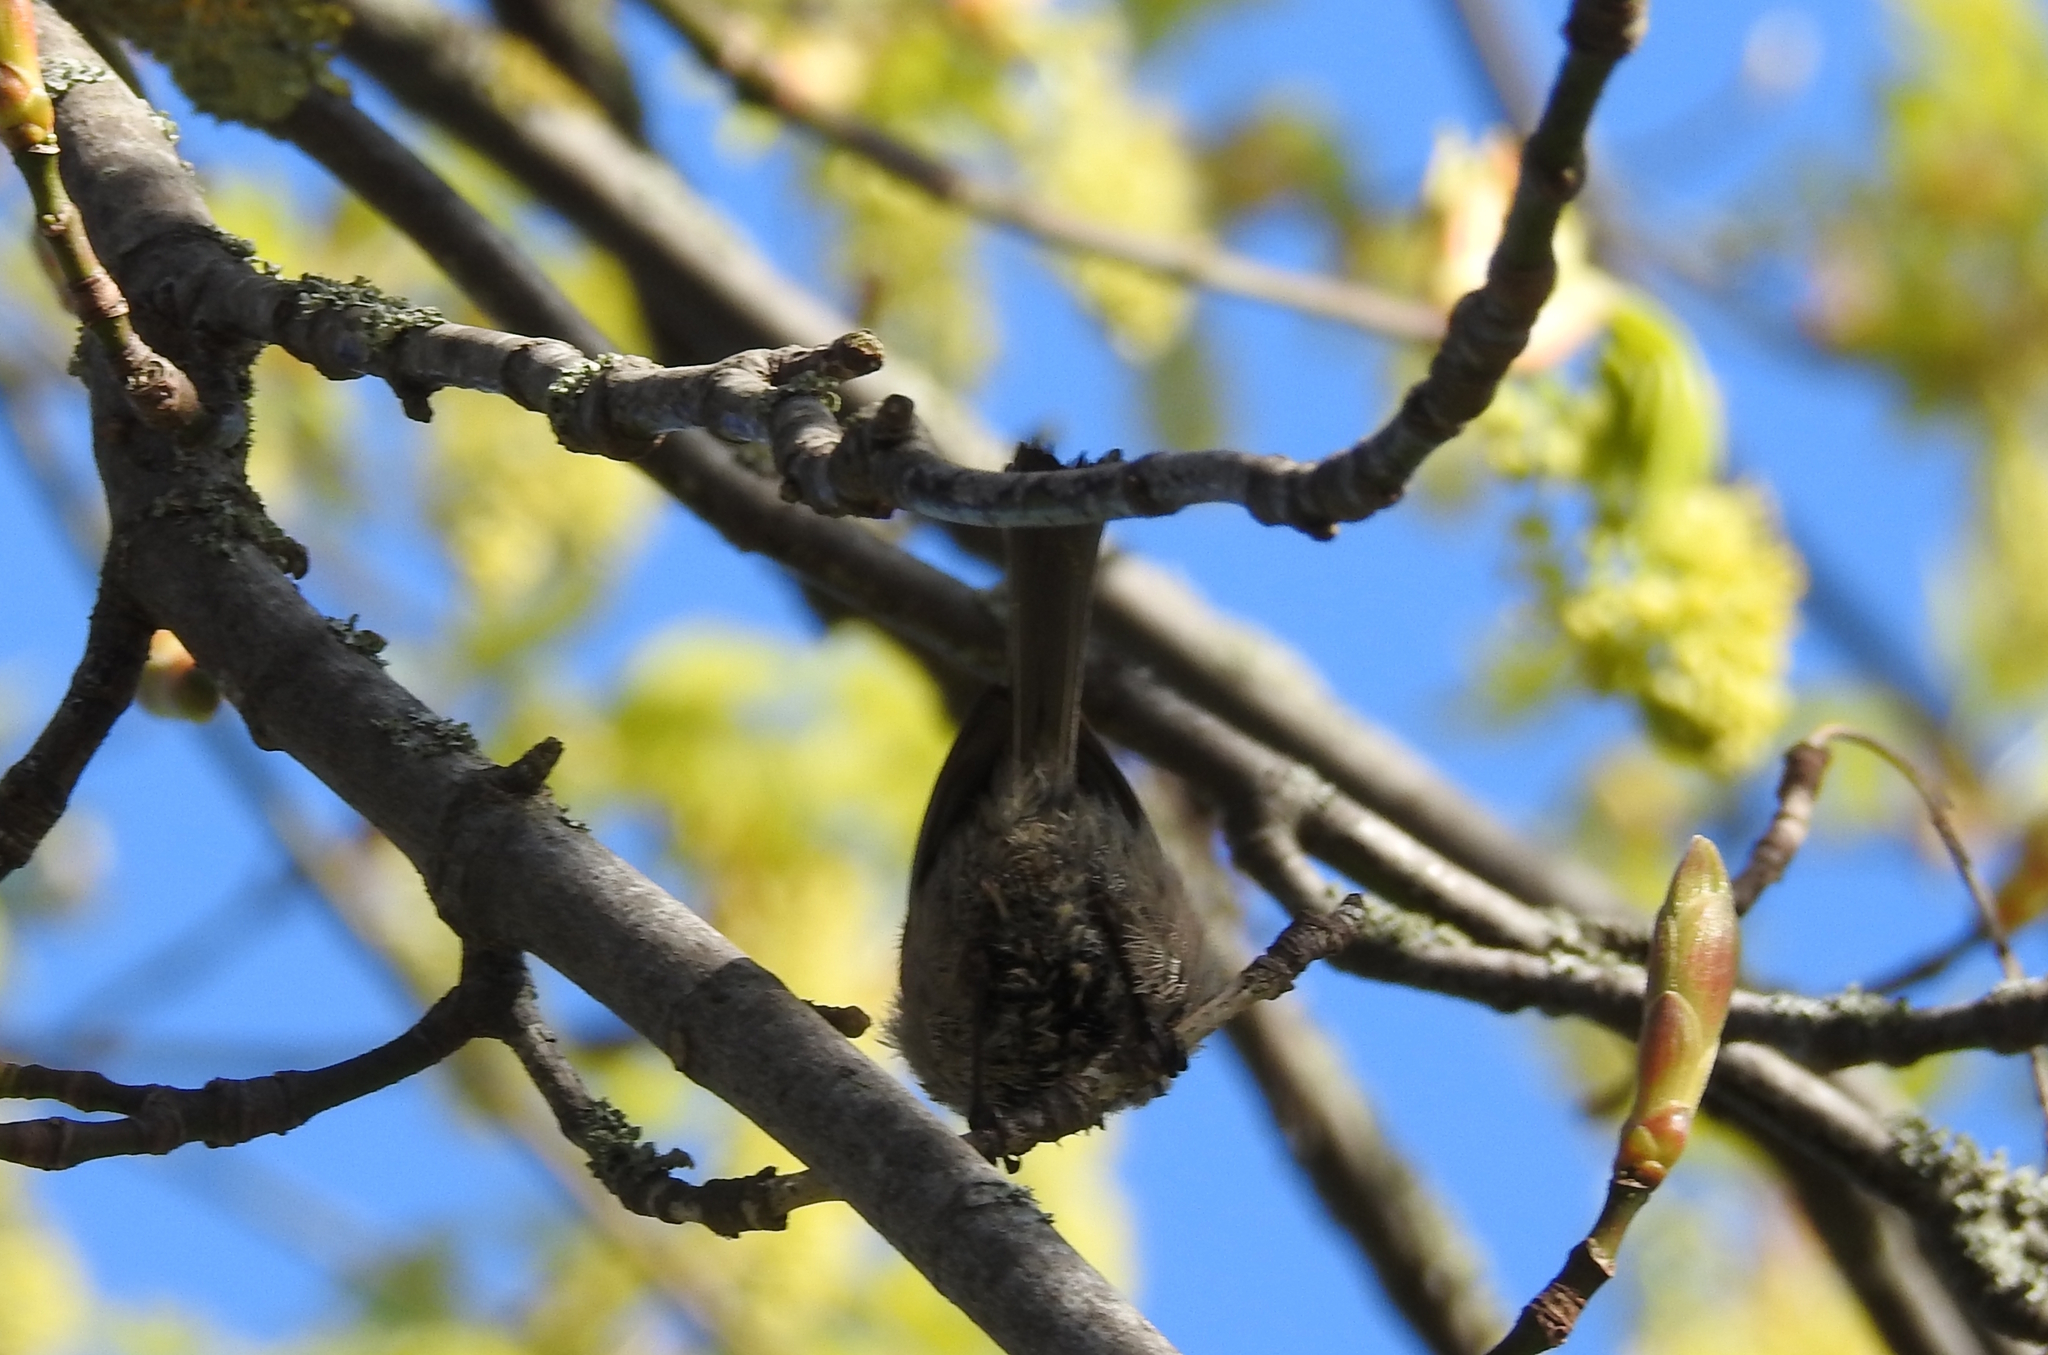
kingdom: Animalia
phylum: Chordata
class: Aves
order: Passeriformes
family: Aegithalidae
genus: Psaltriparus
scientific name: Psaltriparus minimus
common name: American bushtit
